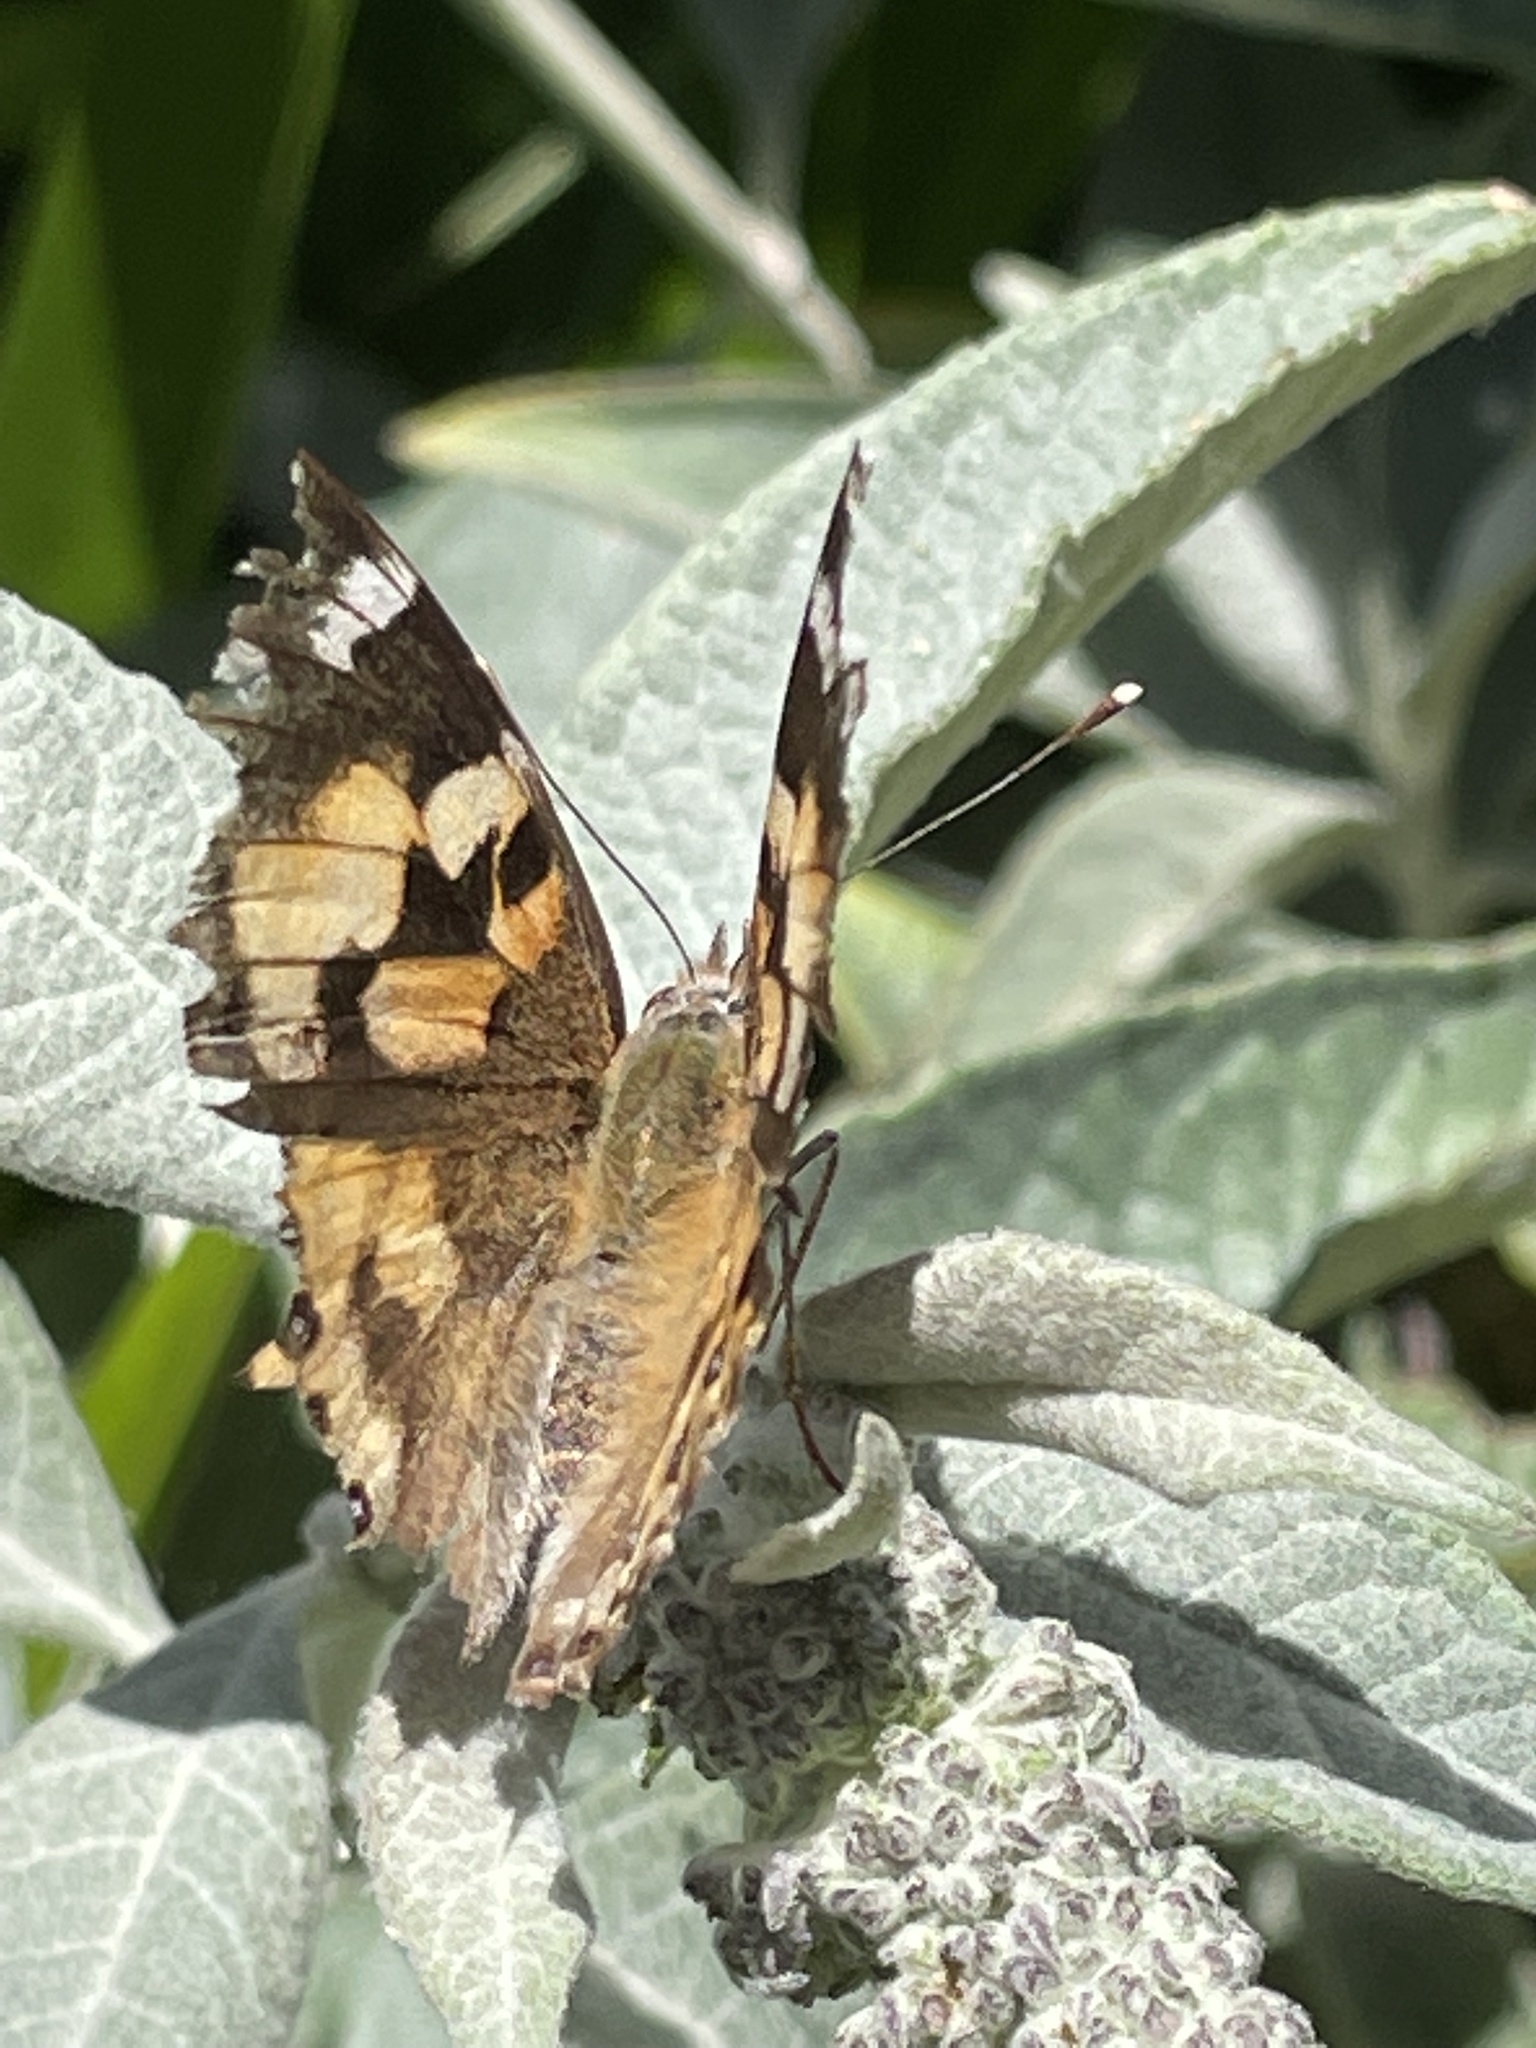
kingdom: Animalia
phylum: Arthropoda
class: Insecta
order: Lepidoptera
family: Nymphalidae
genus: Vanessa
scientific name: Vanessa kershawi
